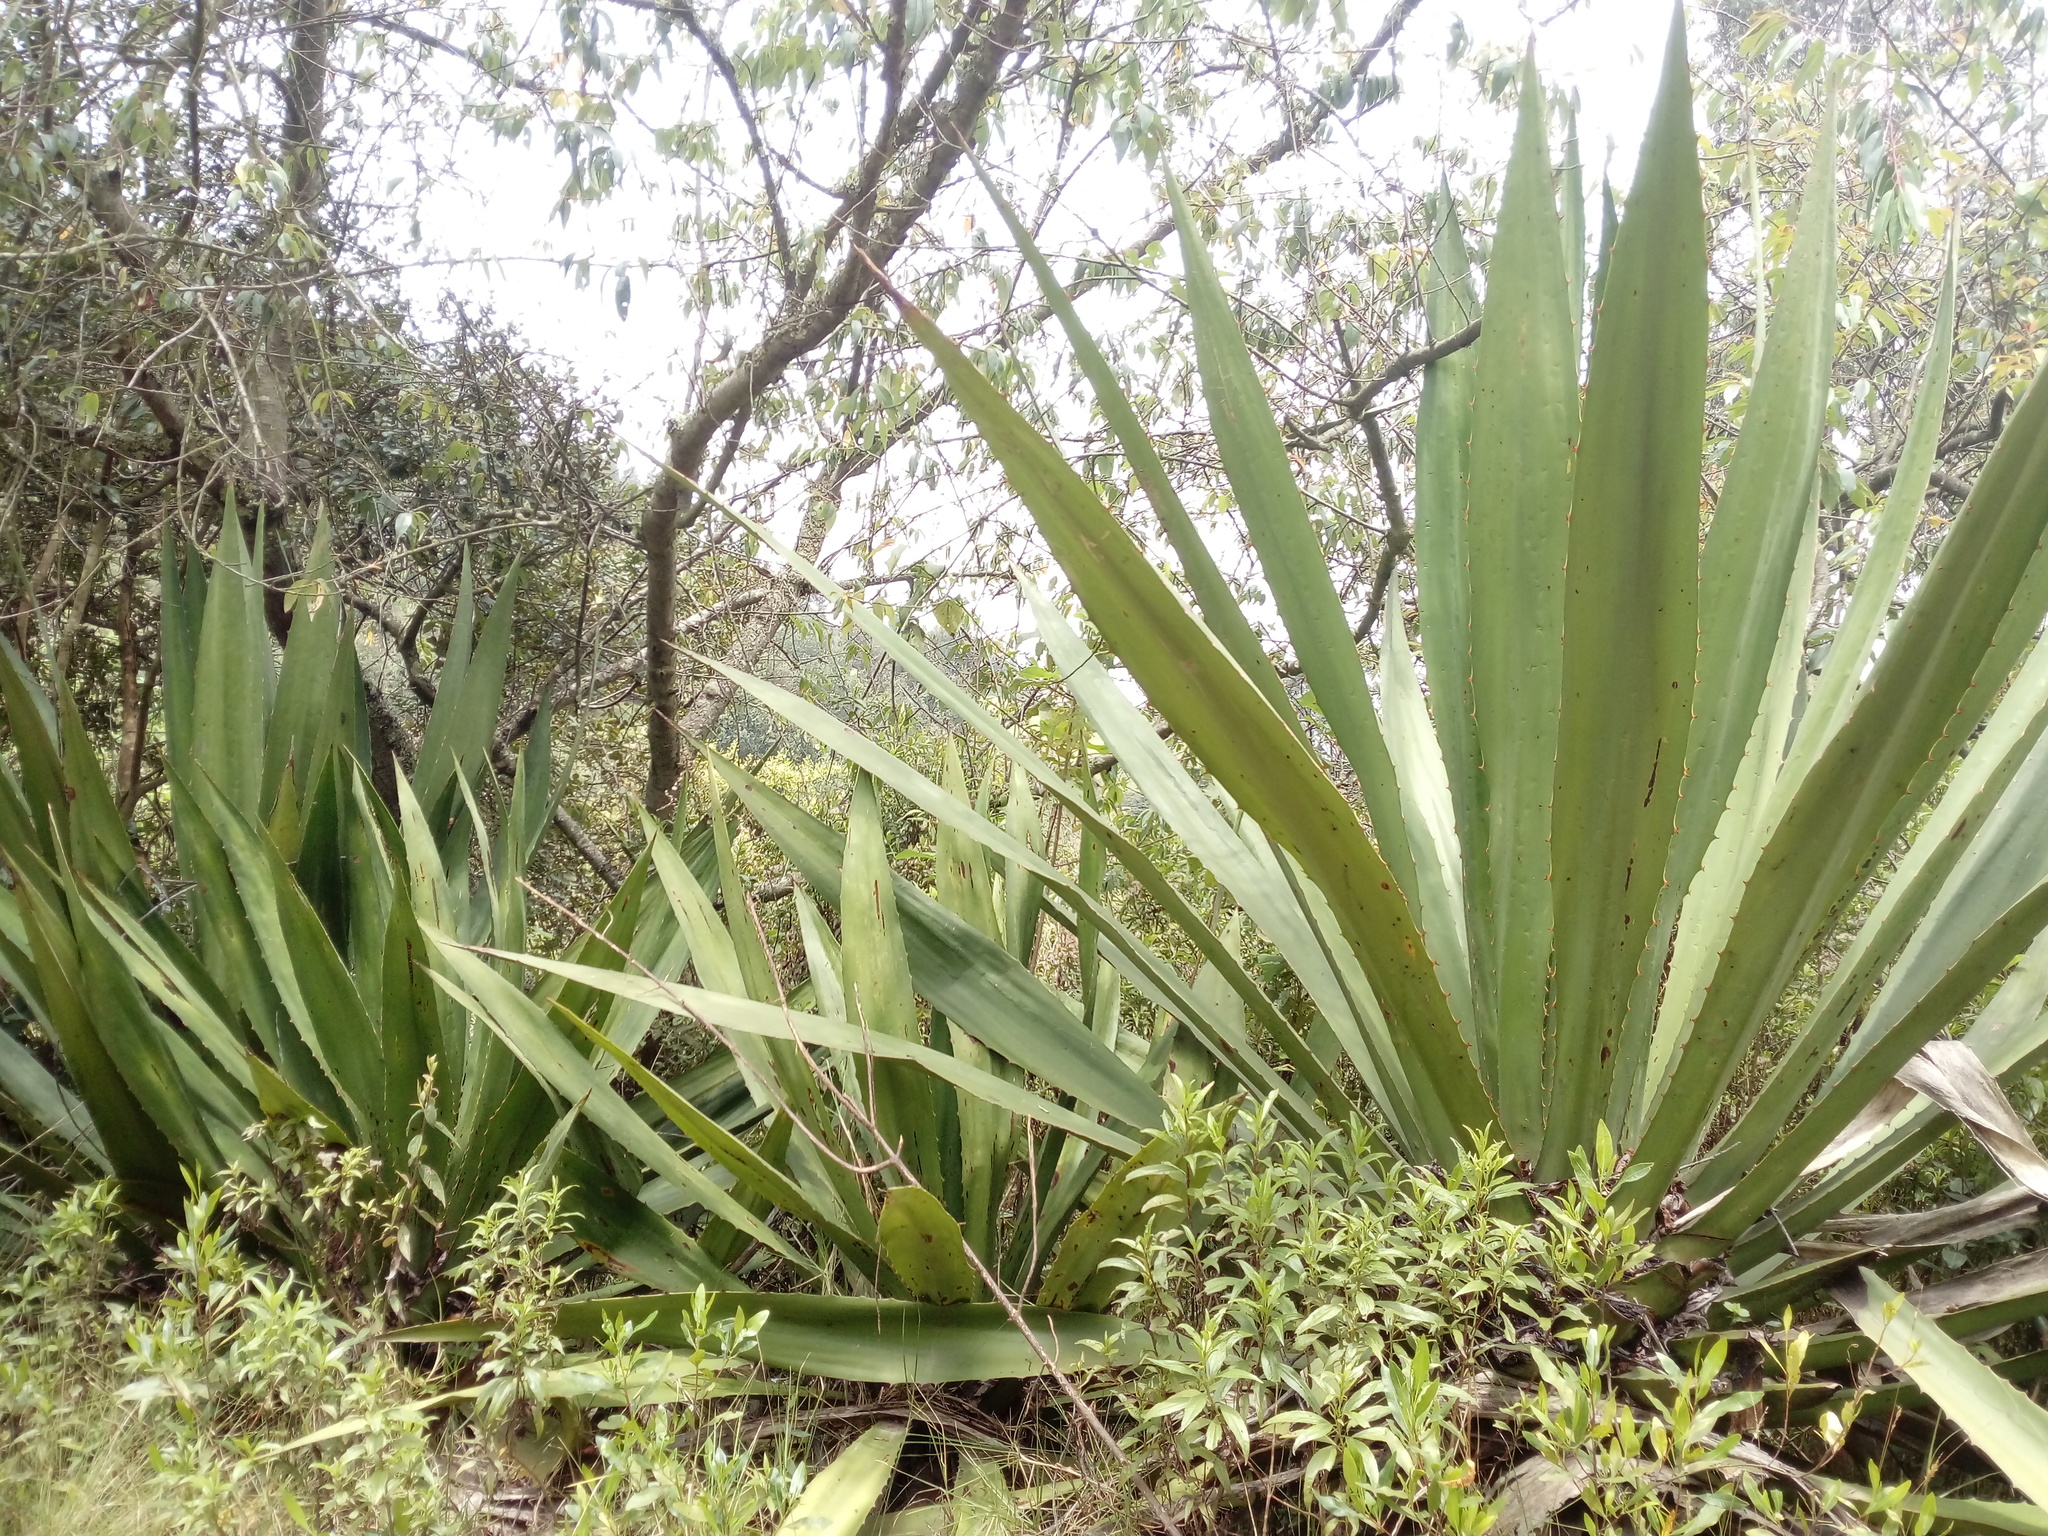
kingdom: Plantae
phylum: Tracheophyta
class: Liliopsida
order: Asparagales
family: Asparagaceae
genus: Furcraea
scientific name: Furcraea cabuya
